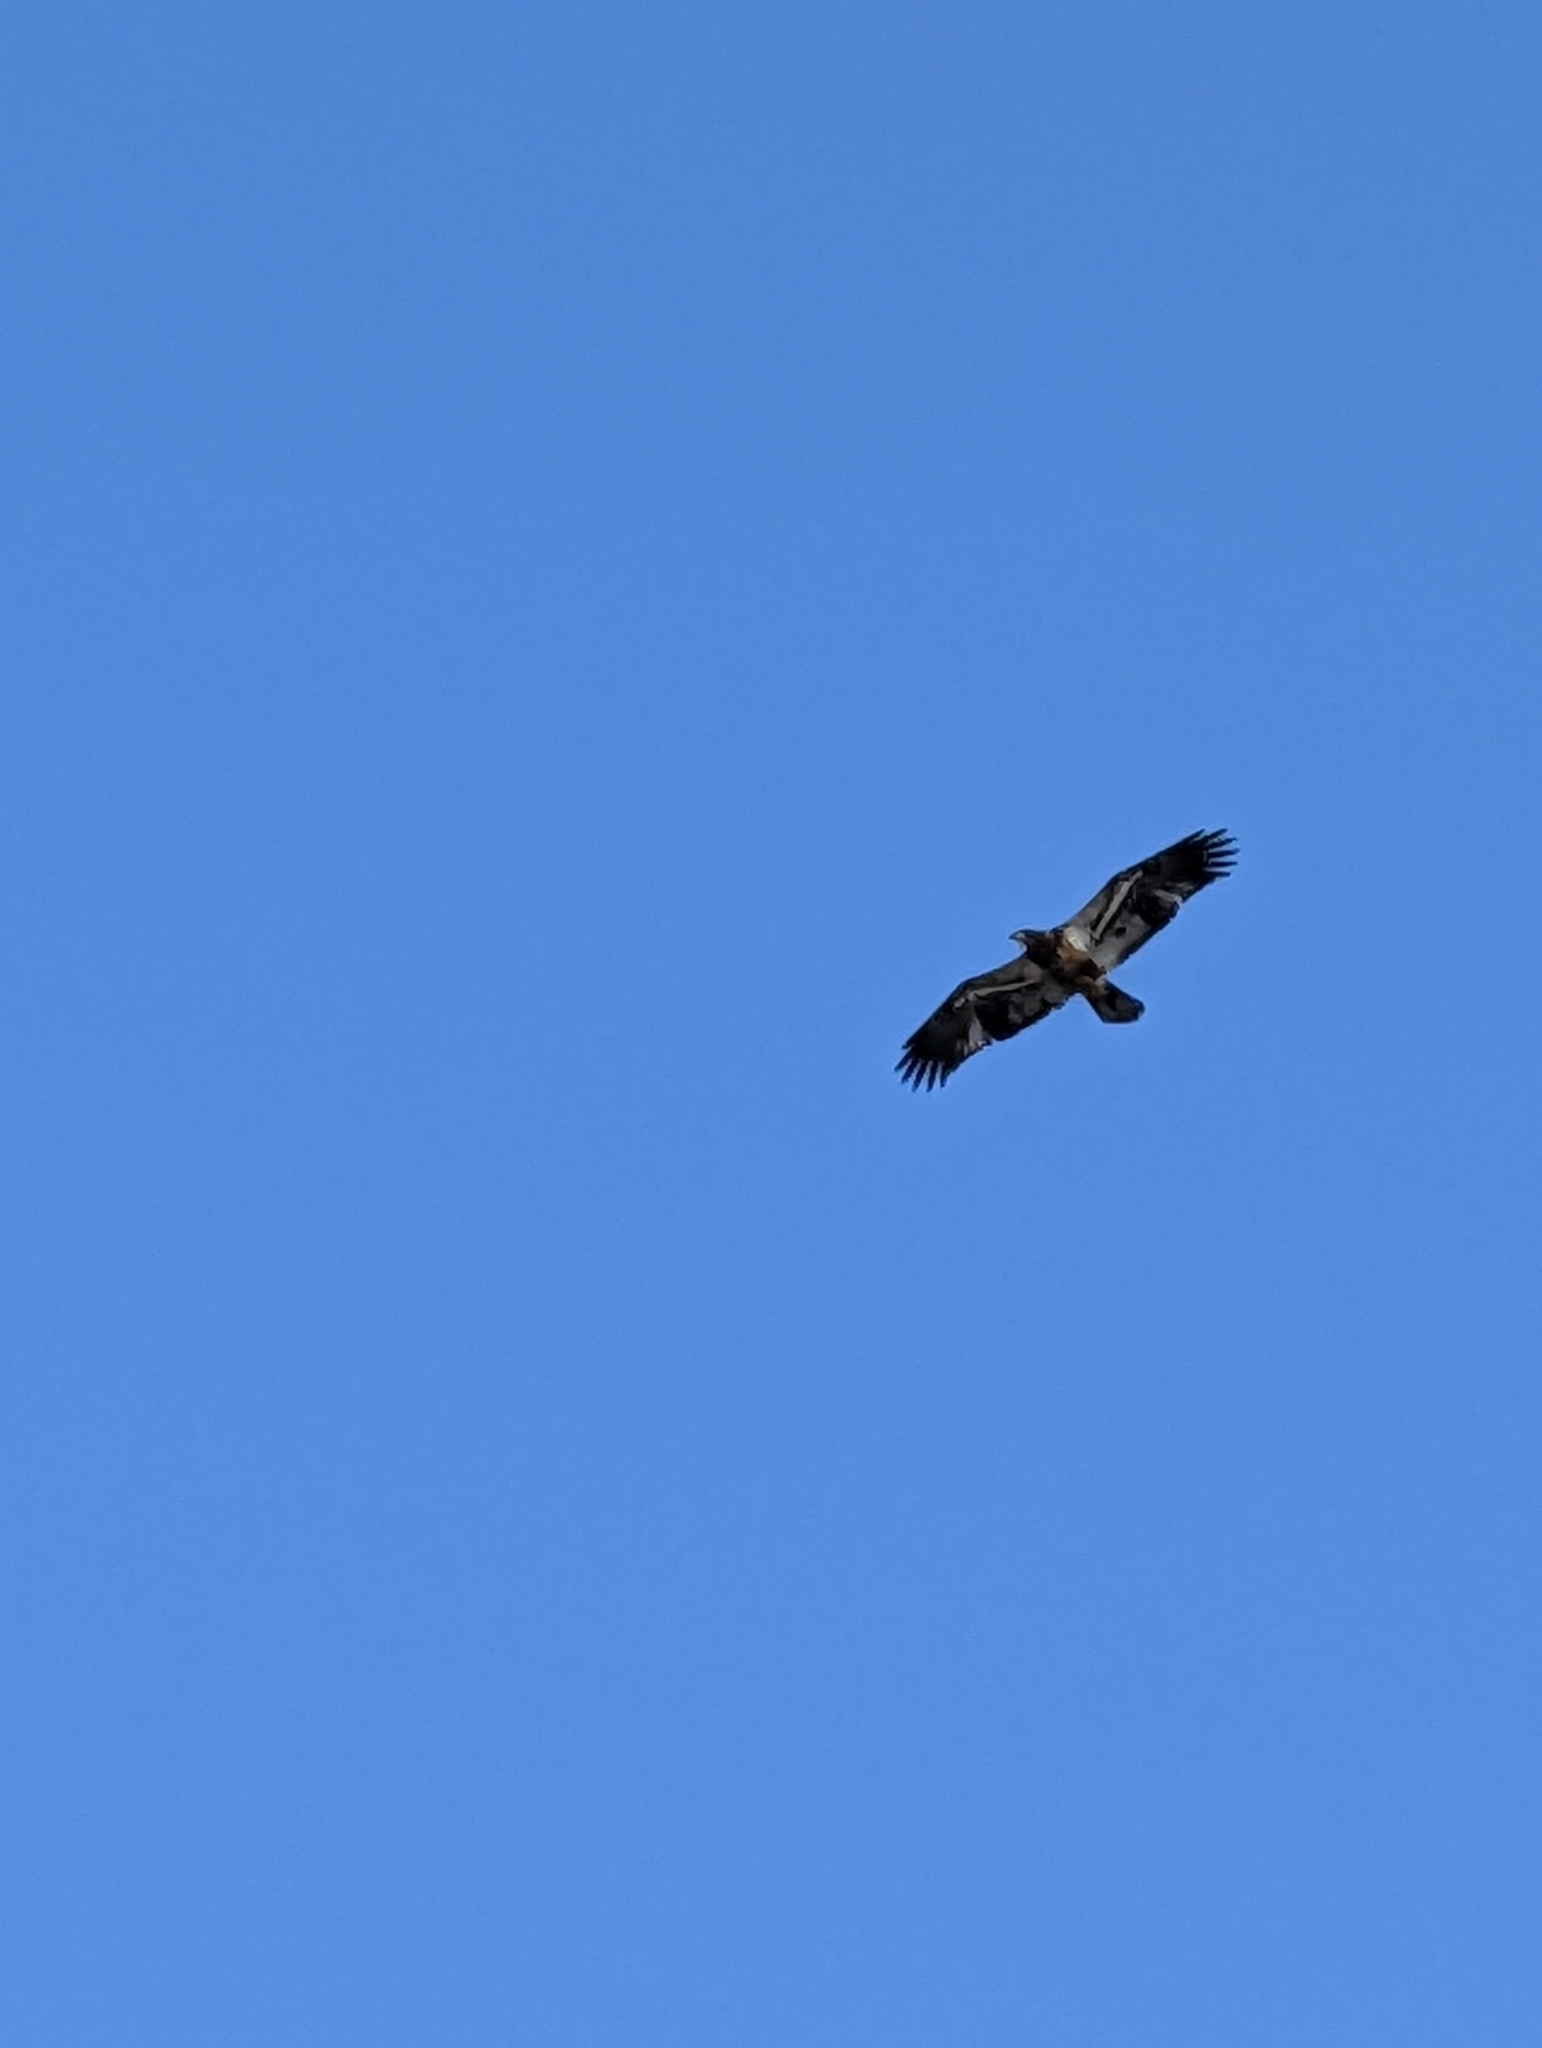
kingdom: Animalia
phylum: Chordata
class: Aves
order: Accipitriformes
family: Accipitridae
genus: Haliaeetus
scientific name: Haliaeetus leucocephalus
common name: Bald eagle
